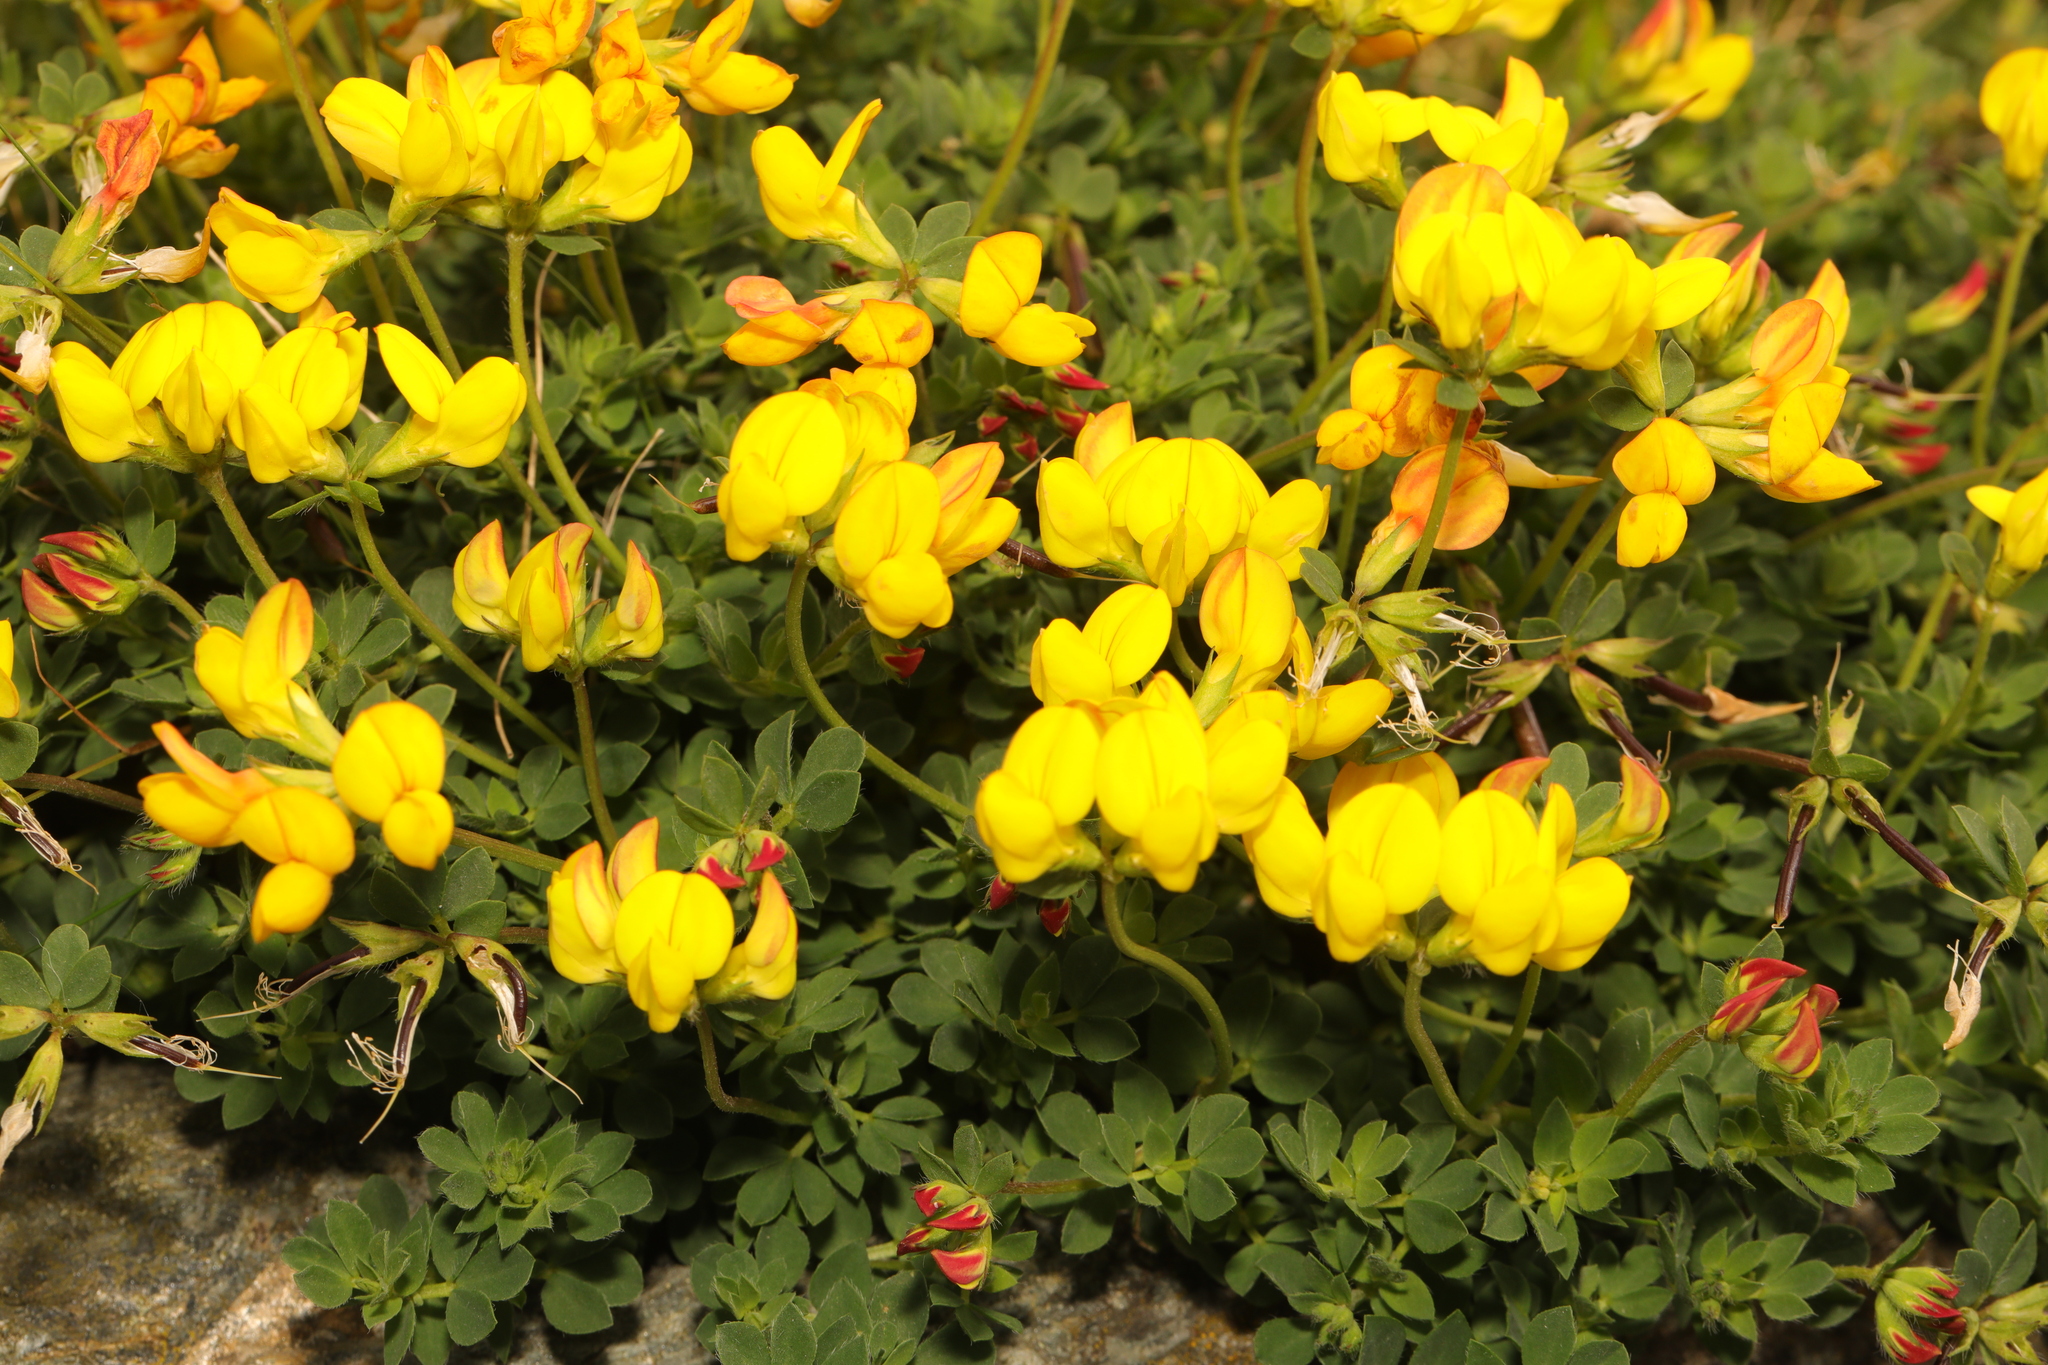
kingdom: Plantae
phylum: Tracheophyta
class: Magnoliopsida
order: Fabales
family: Fabaceae
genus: Lotus
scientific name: Lotus corniculatus
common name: Common bird's-foot-trefoil
